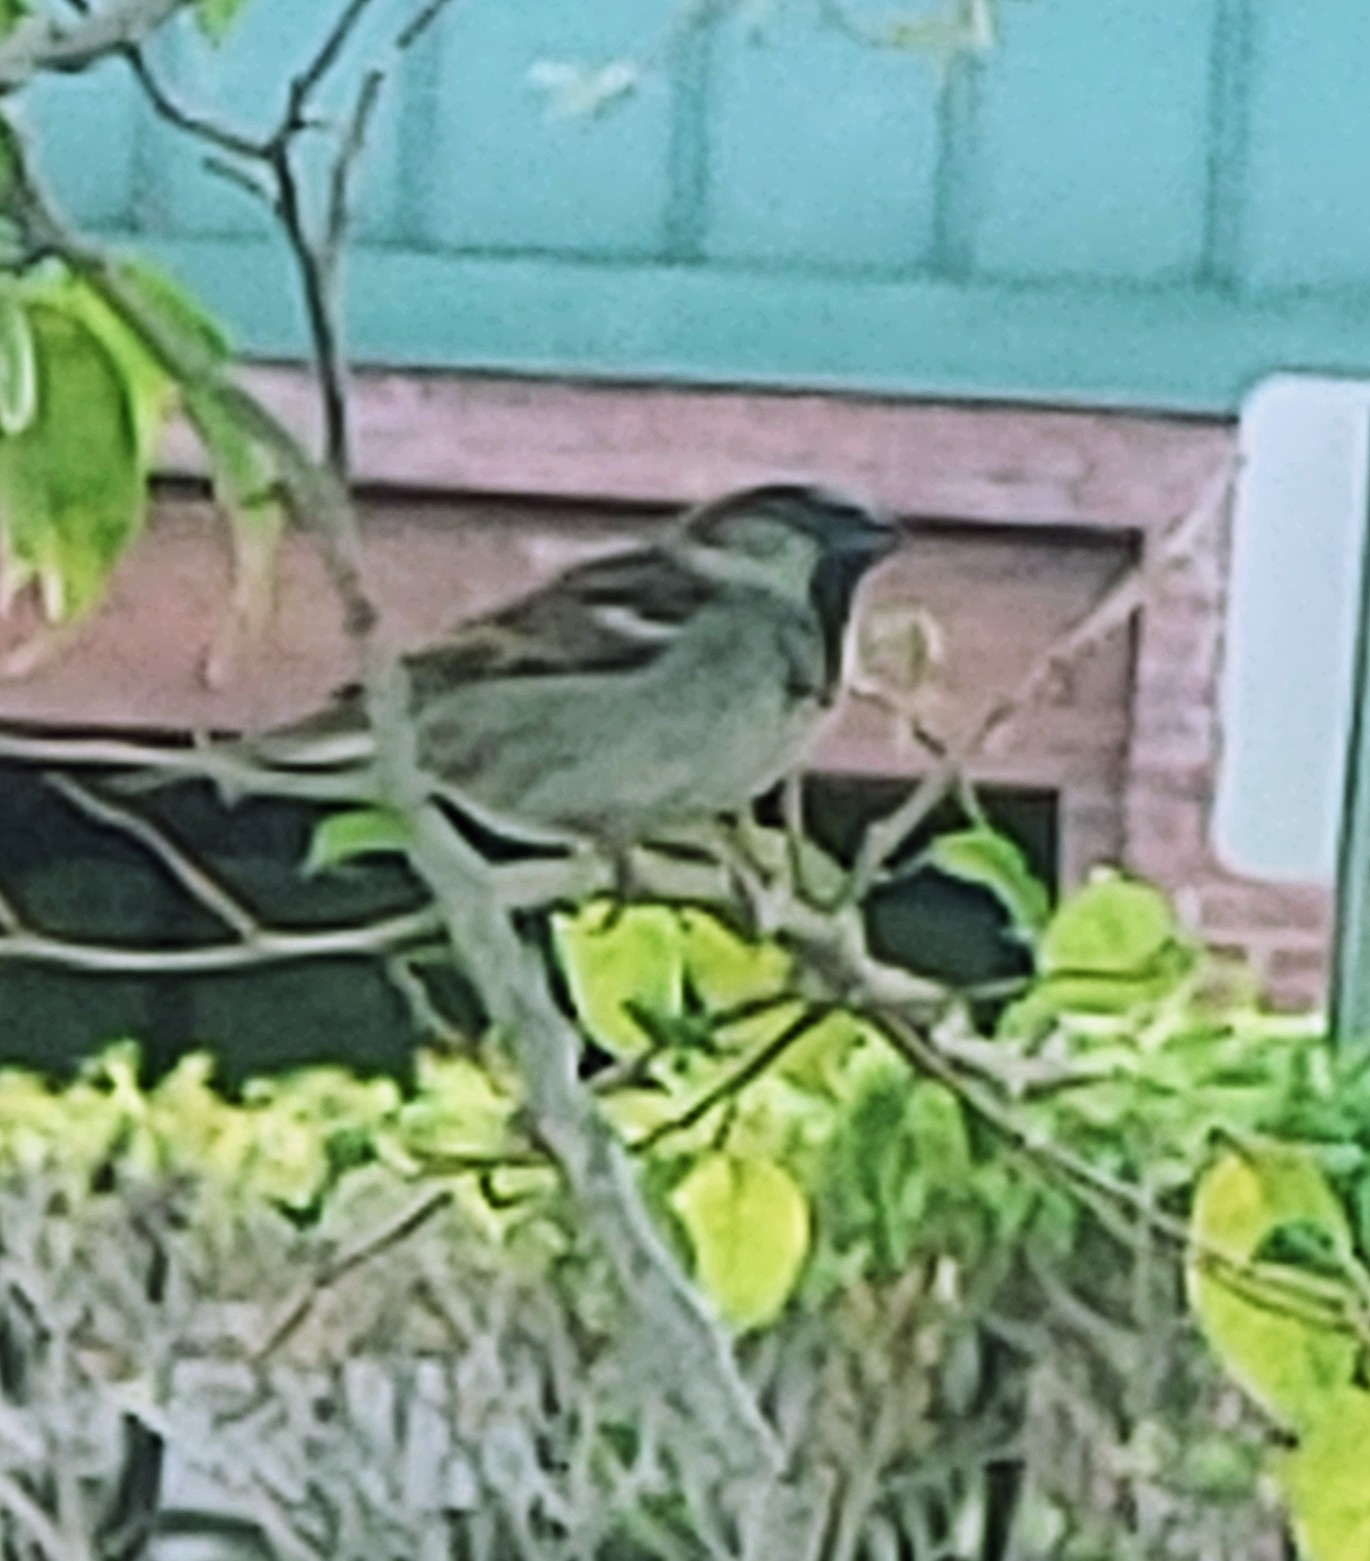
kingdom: Animalia
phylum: Chordata
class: Aves
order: Passeriformes
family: Passeridae
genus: Passer
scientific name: Passer domesticus
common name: House sparrow
